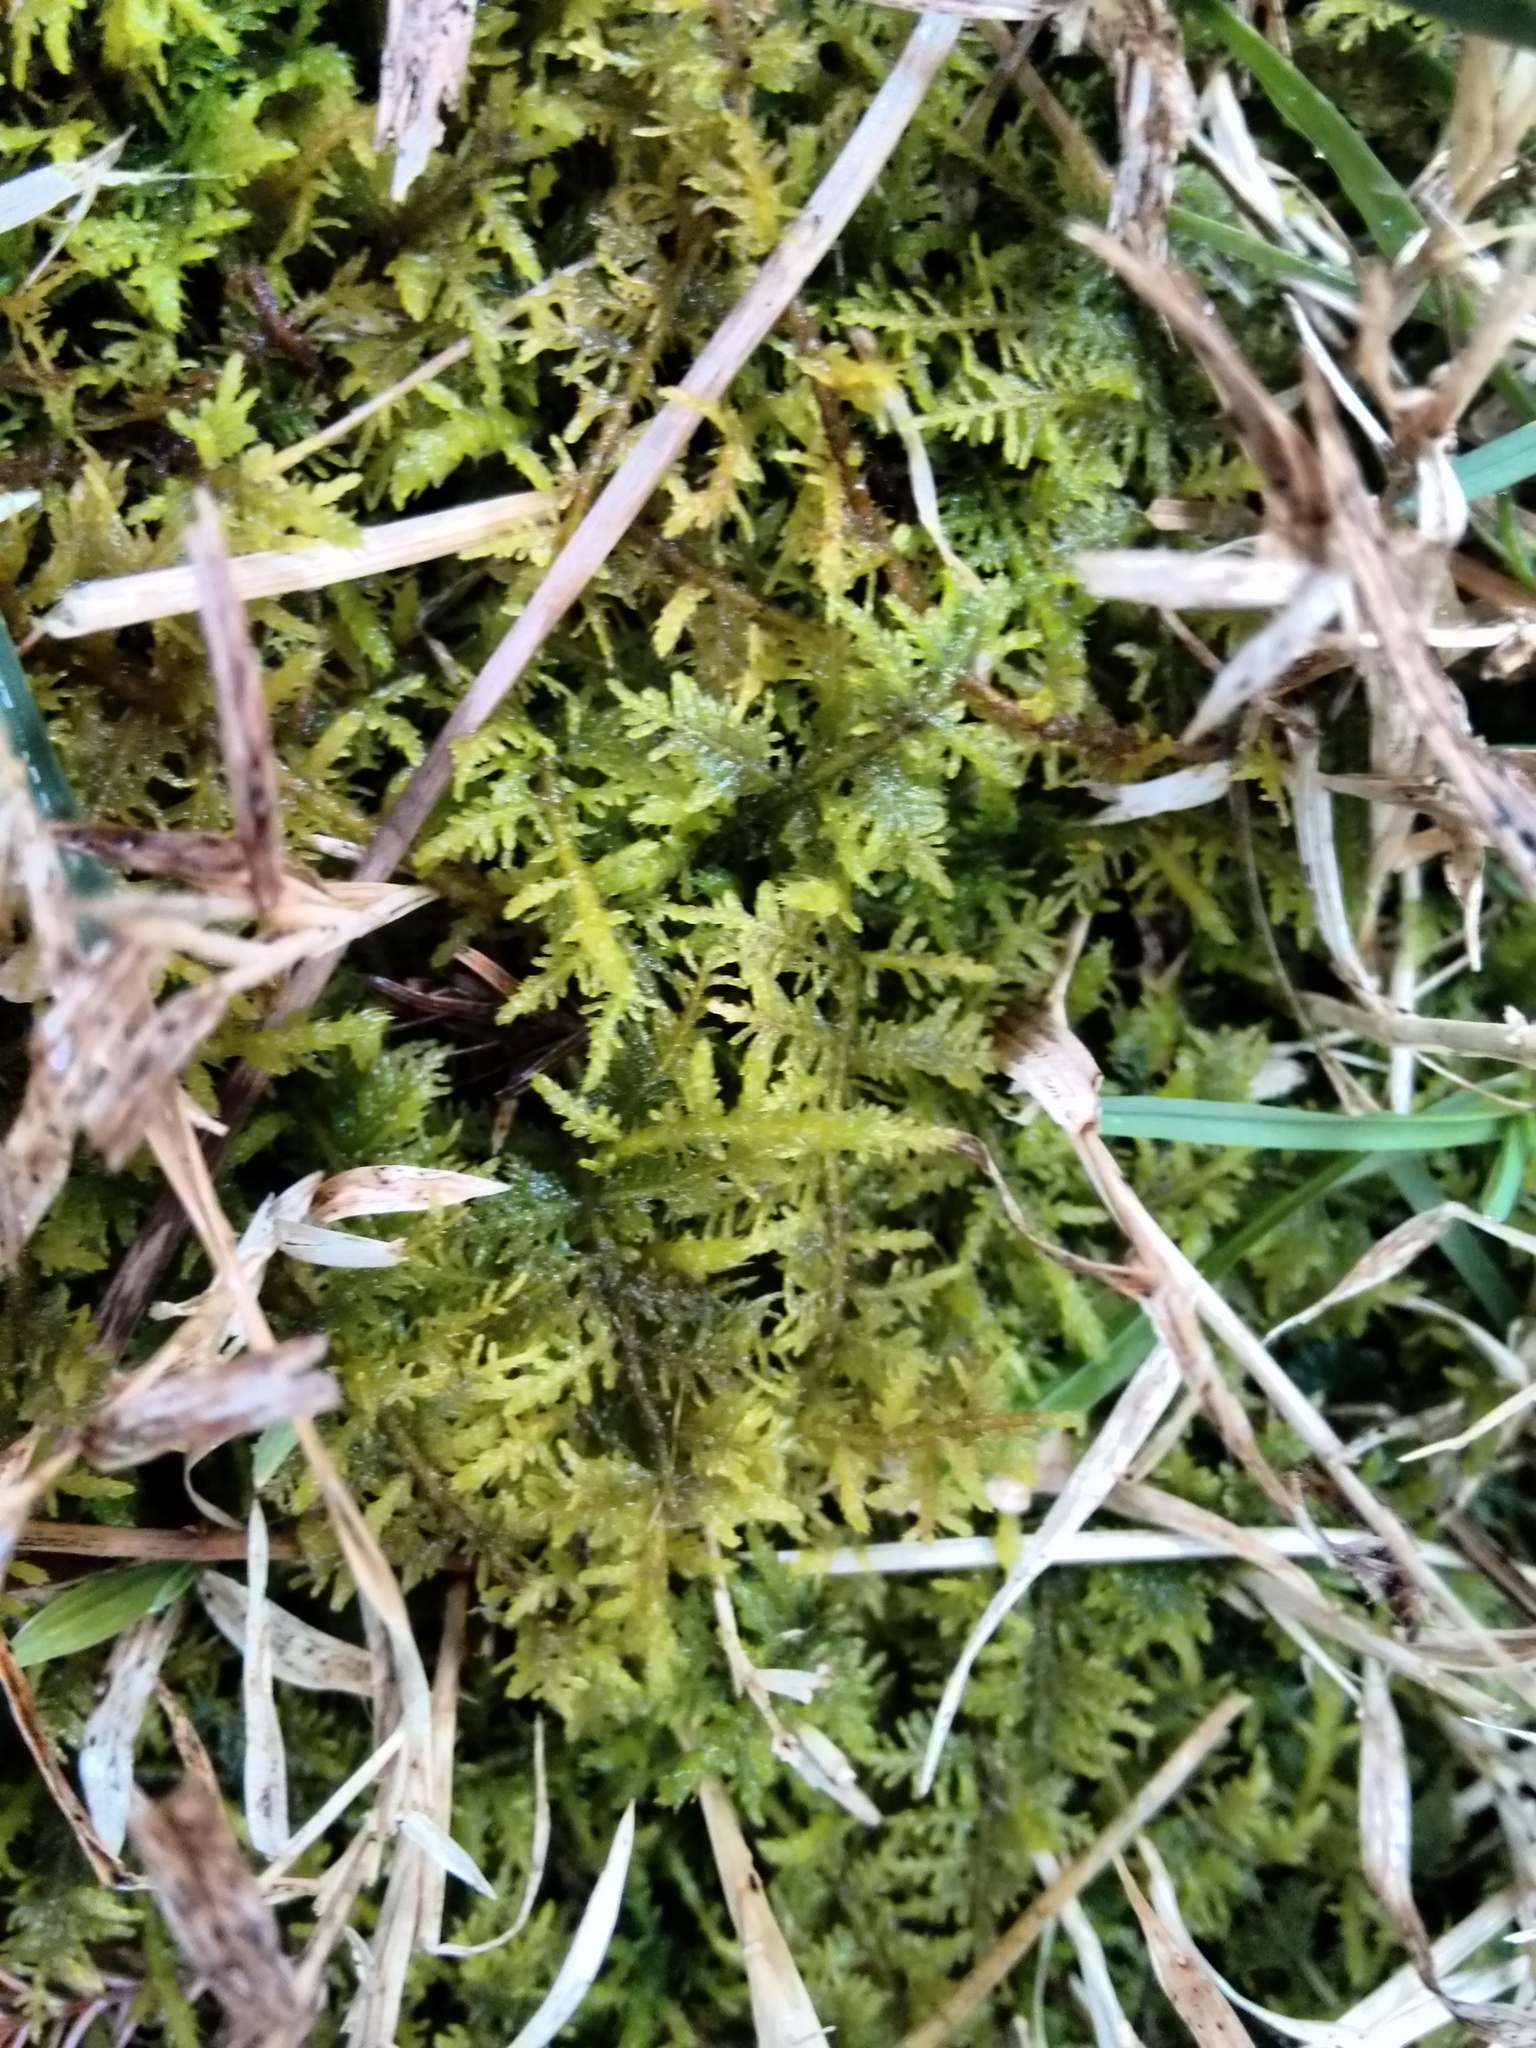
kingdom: Plantae
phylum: Bryophyta
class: Bryopsida
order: Hypnales
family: Thuidiaceae
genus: Thuidium
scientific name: Thuidium delicatulum
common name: Delicate fern moss
